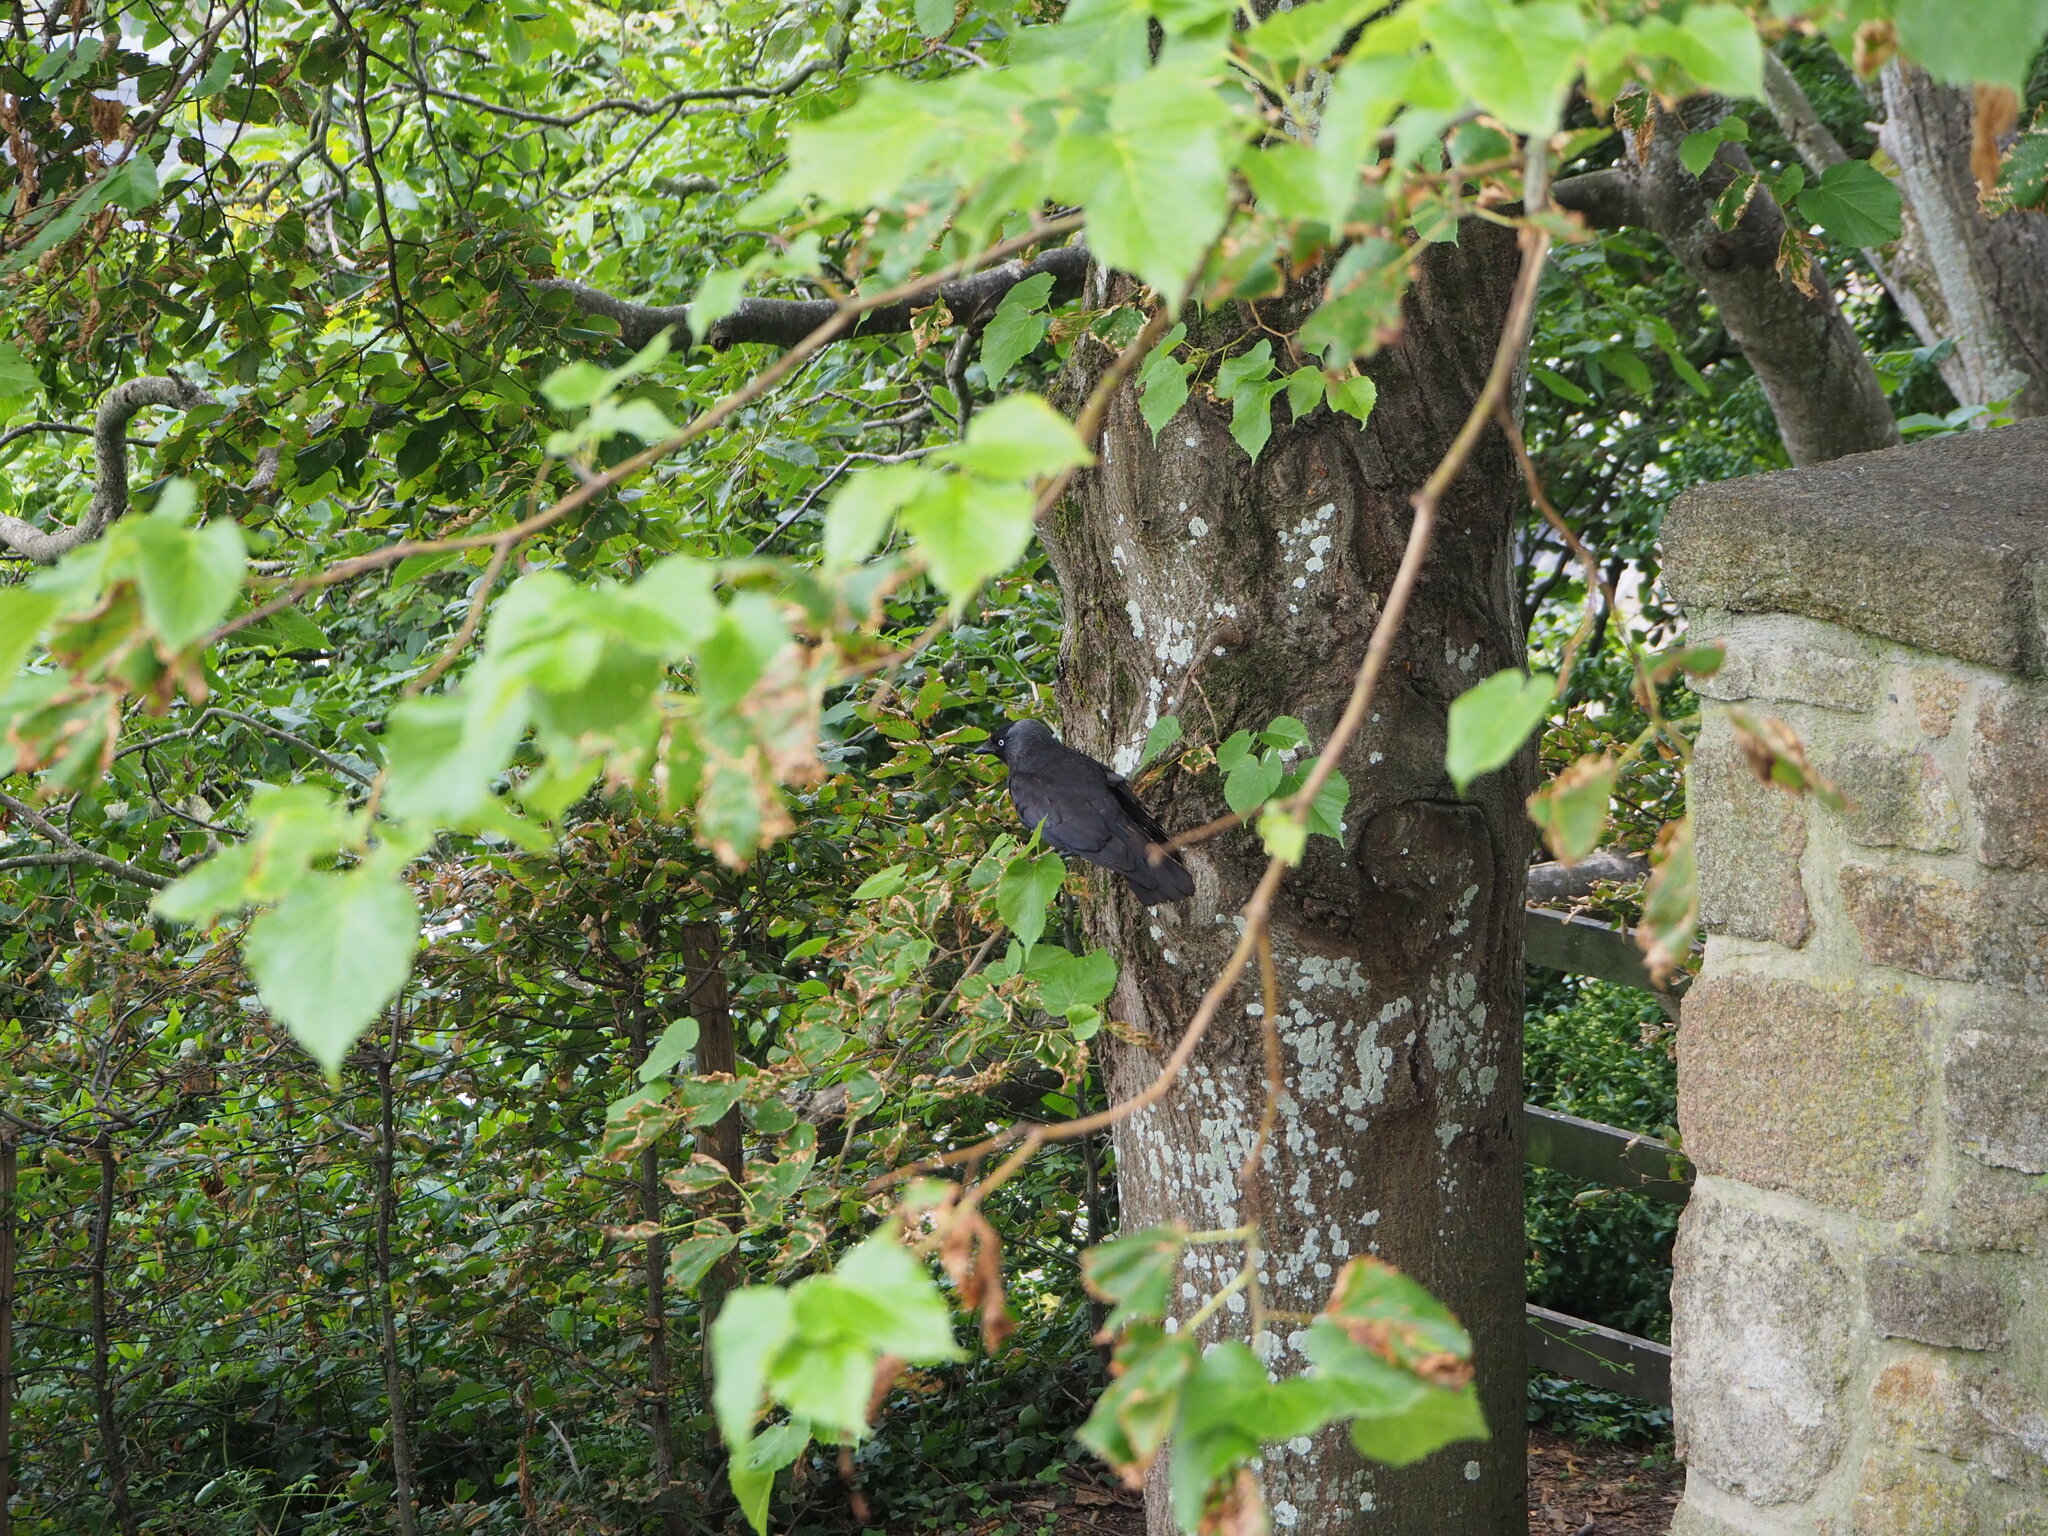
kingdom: Animalia
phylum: Chordata
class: Aves
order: Passeriformes
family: Corvidae
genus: Coloeus
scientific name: Coloeus monedula
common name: Western jackdaw
